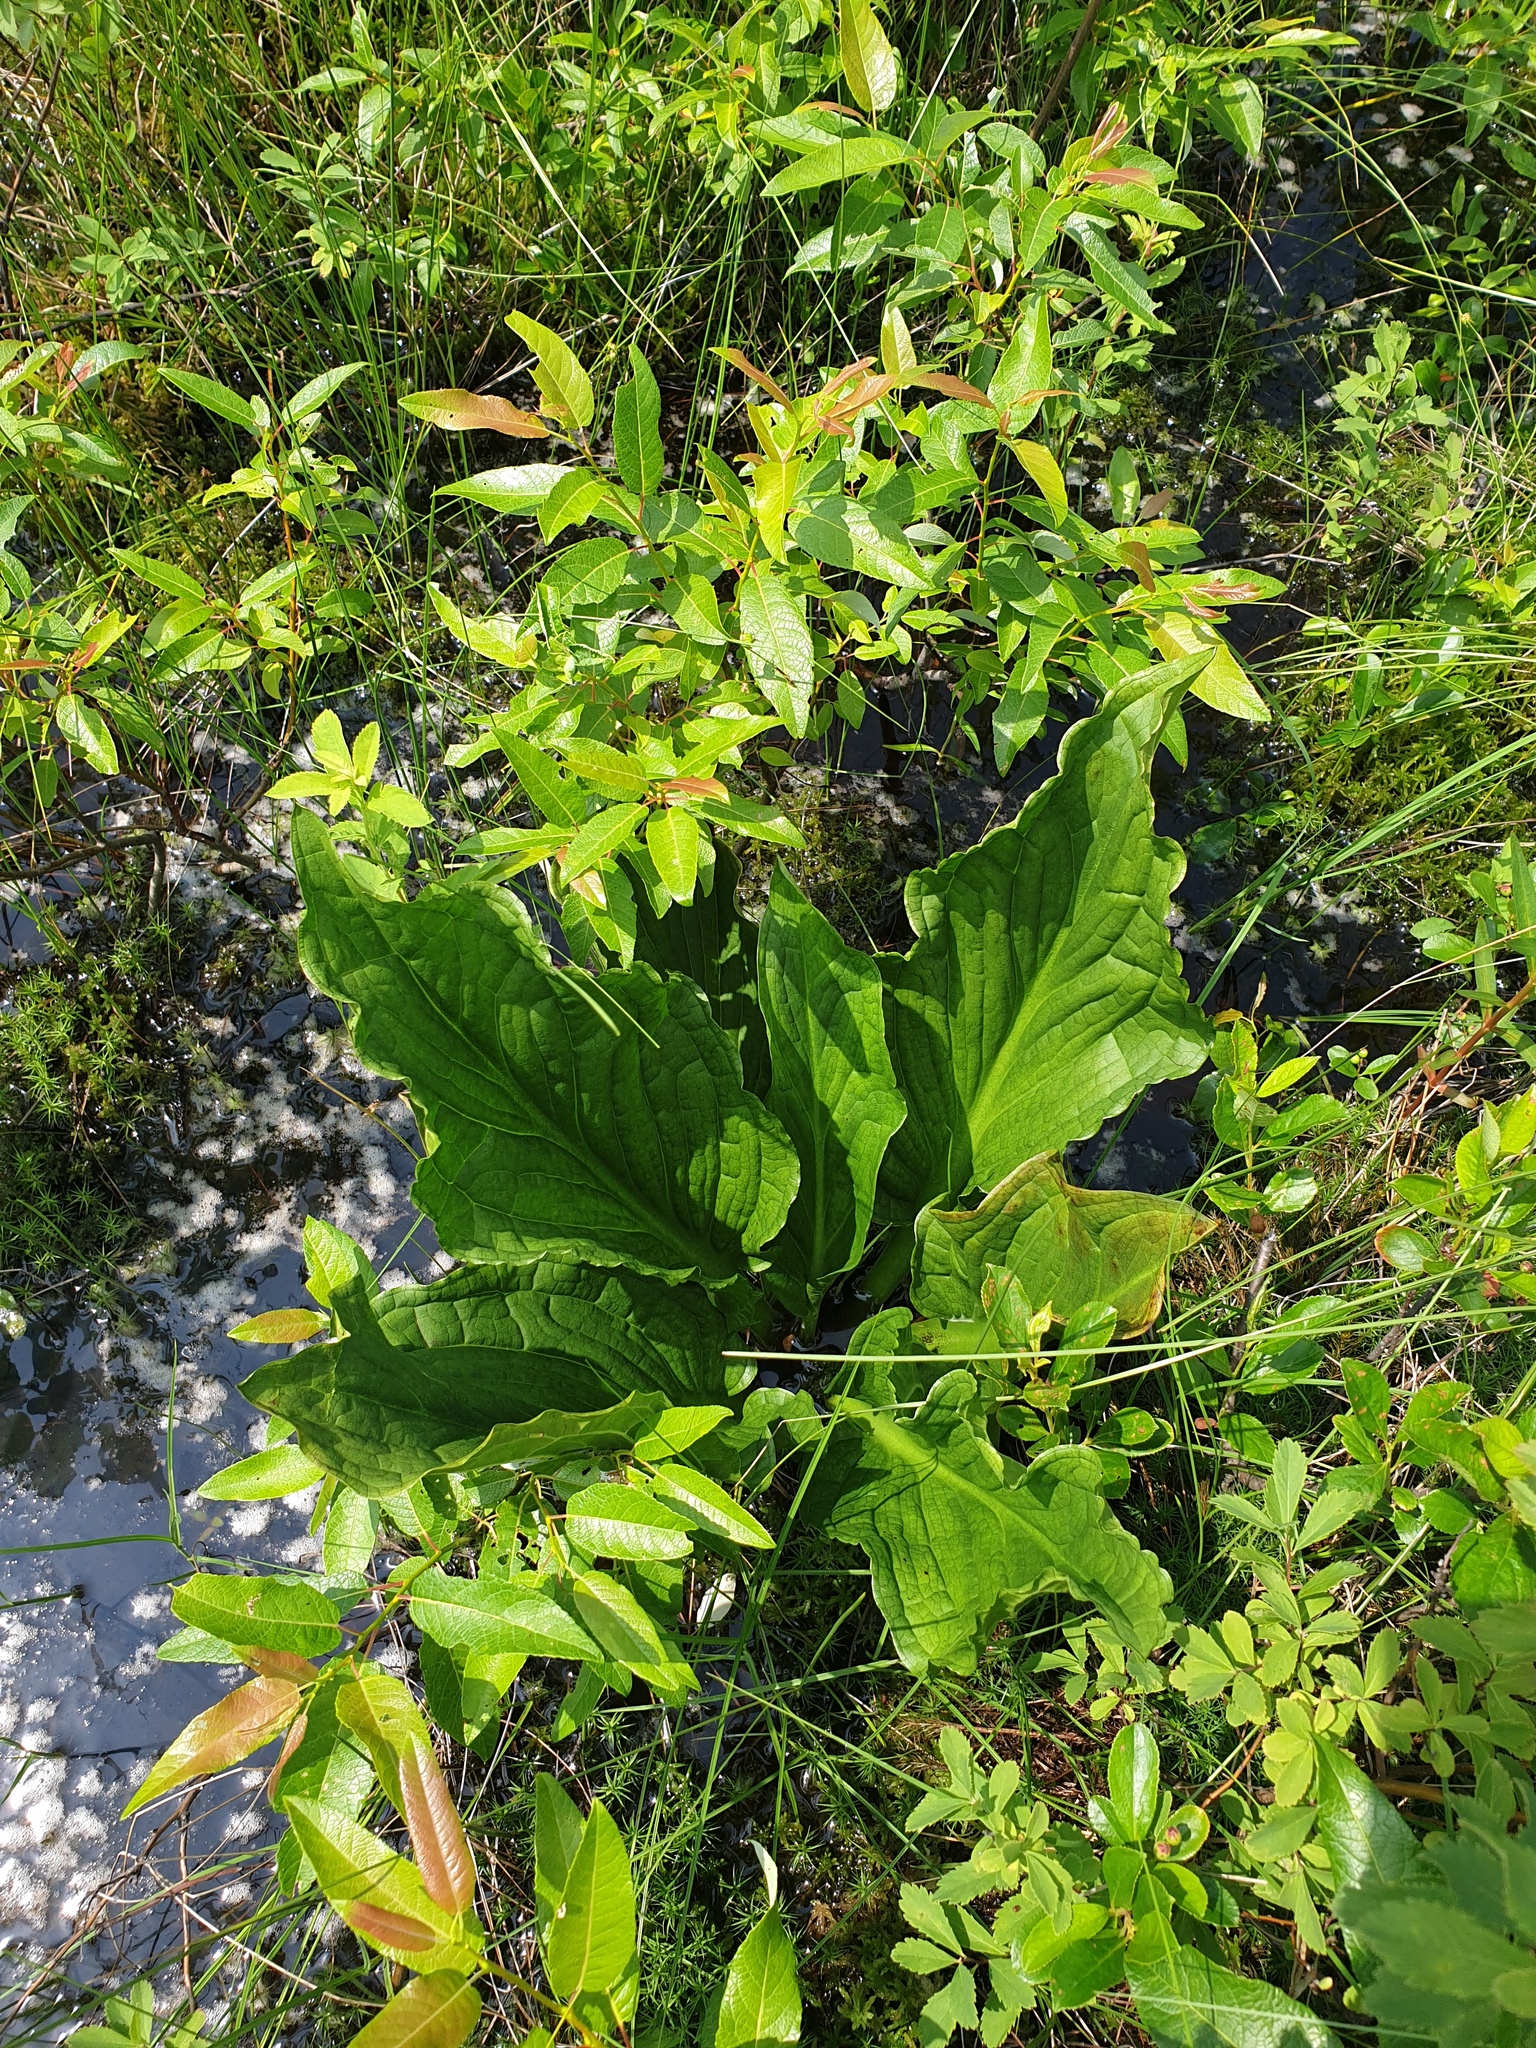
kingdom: Plantae
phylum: Tracheophyta
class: Liliopsida
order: Alismatales
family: Araceae
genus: Symplocarpus
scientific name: Symplocarpus foetidus
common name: Eastern skunk cabbage
